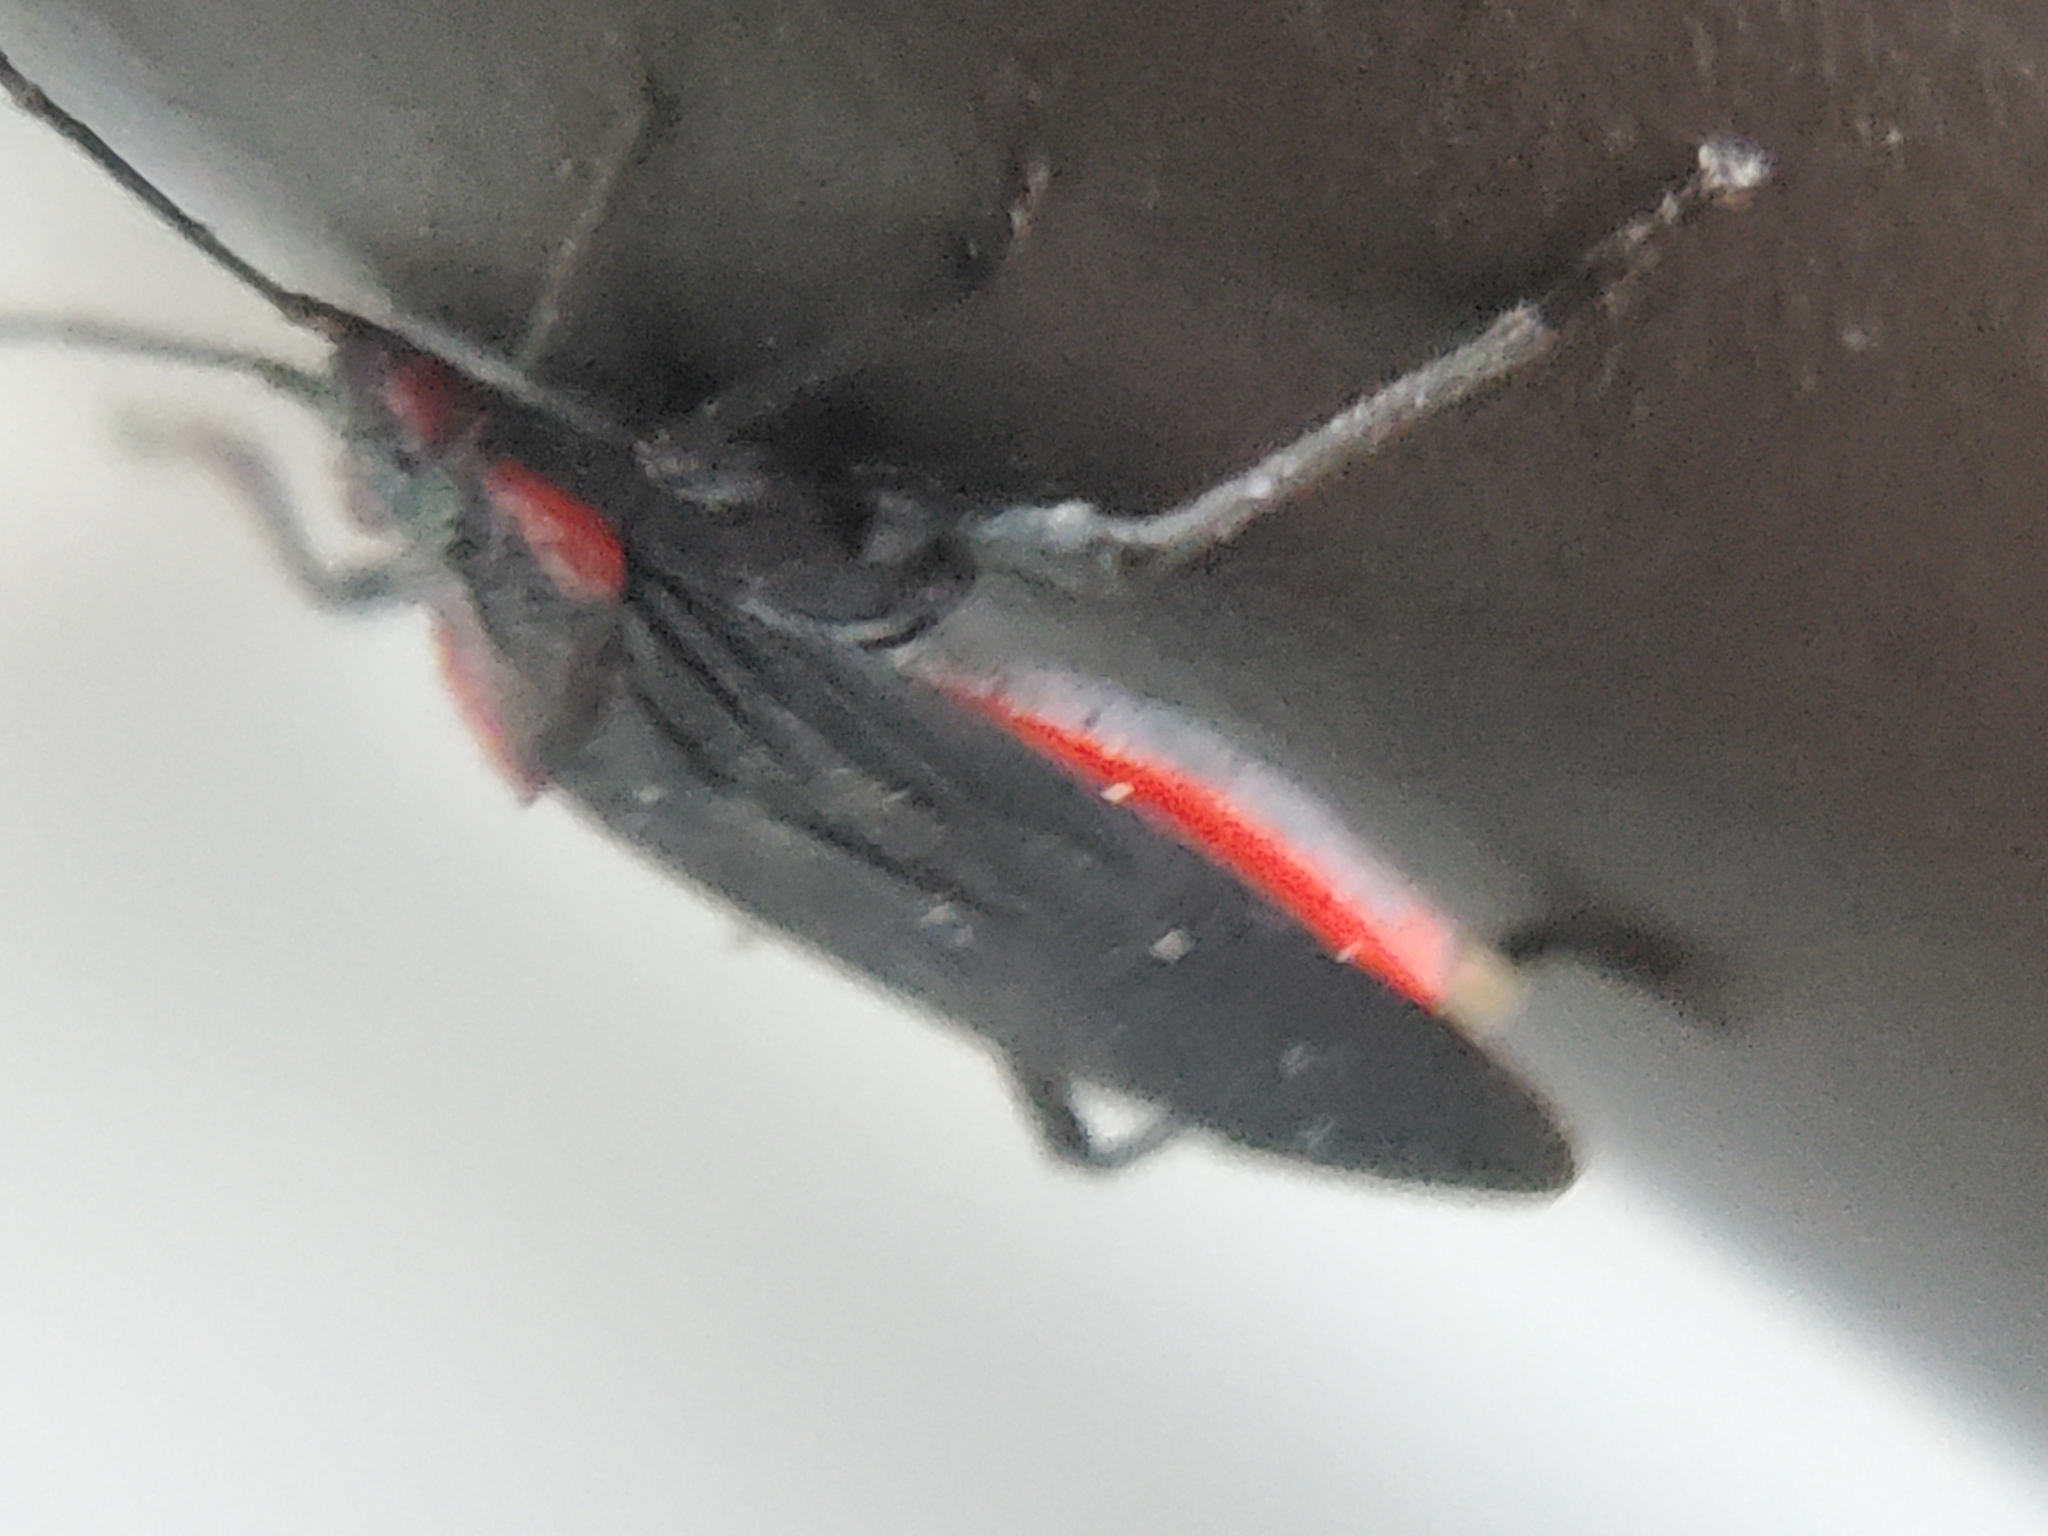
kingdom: Animalia
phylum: Arthropoda
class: Insecta
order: Hemiptera
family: Rhopalidae
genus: Jadera
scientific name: Jadera haematoloma
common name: Red-shouldered bug
